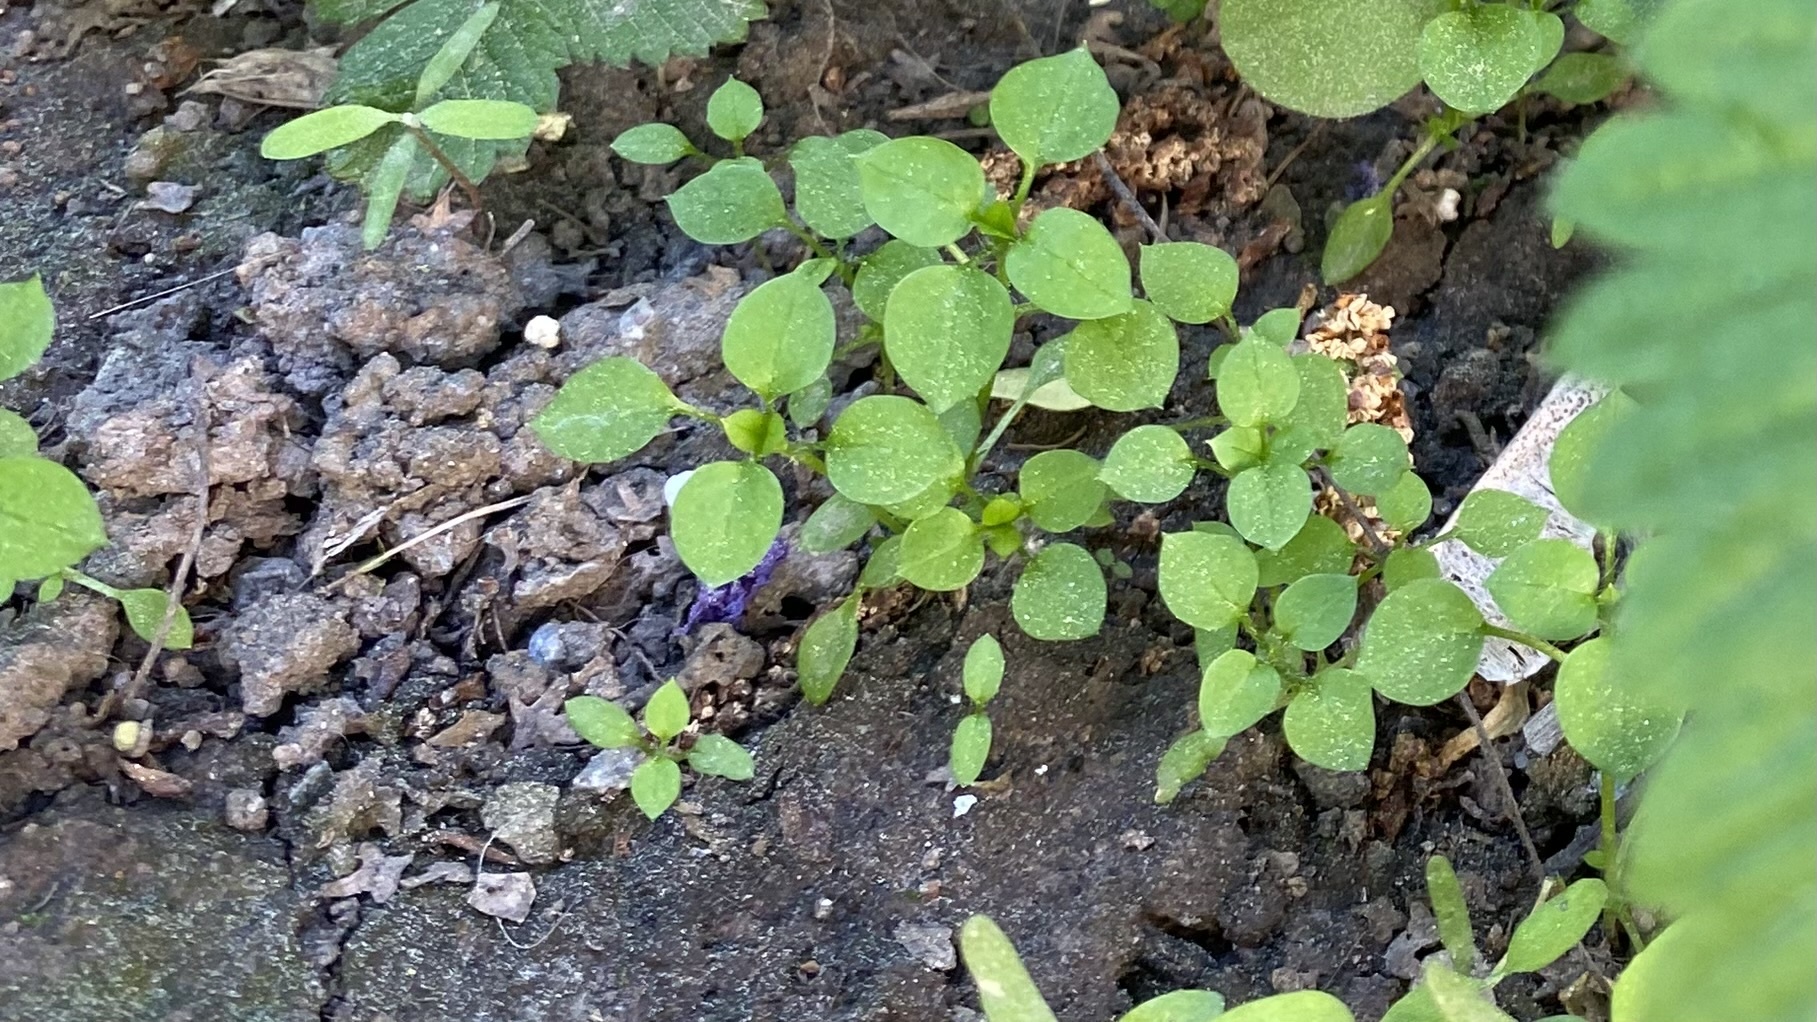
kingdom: Plantae
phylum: Tracheophyta
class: Magnoliopsida
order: Caryophyllales
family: Caryophyllaceae
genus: Stellaria
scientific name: Stellaria media
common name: Common chickweed
